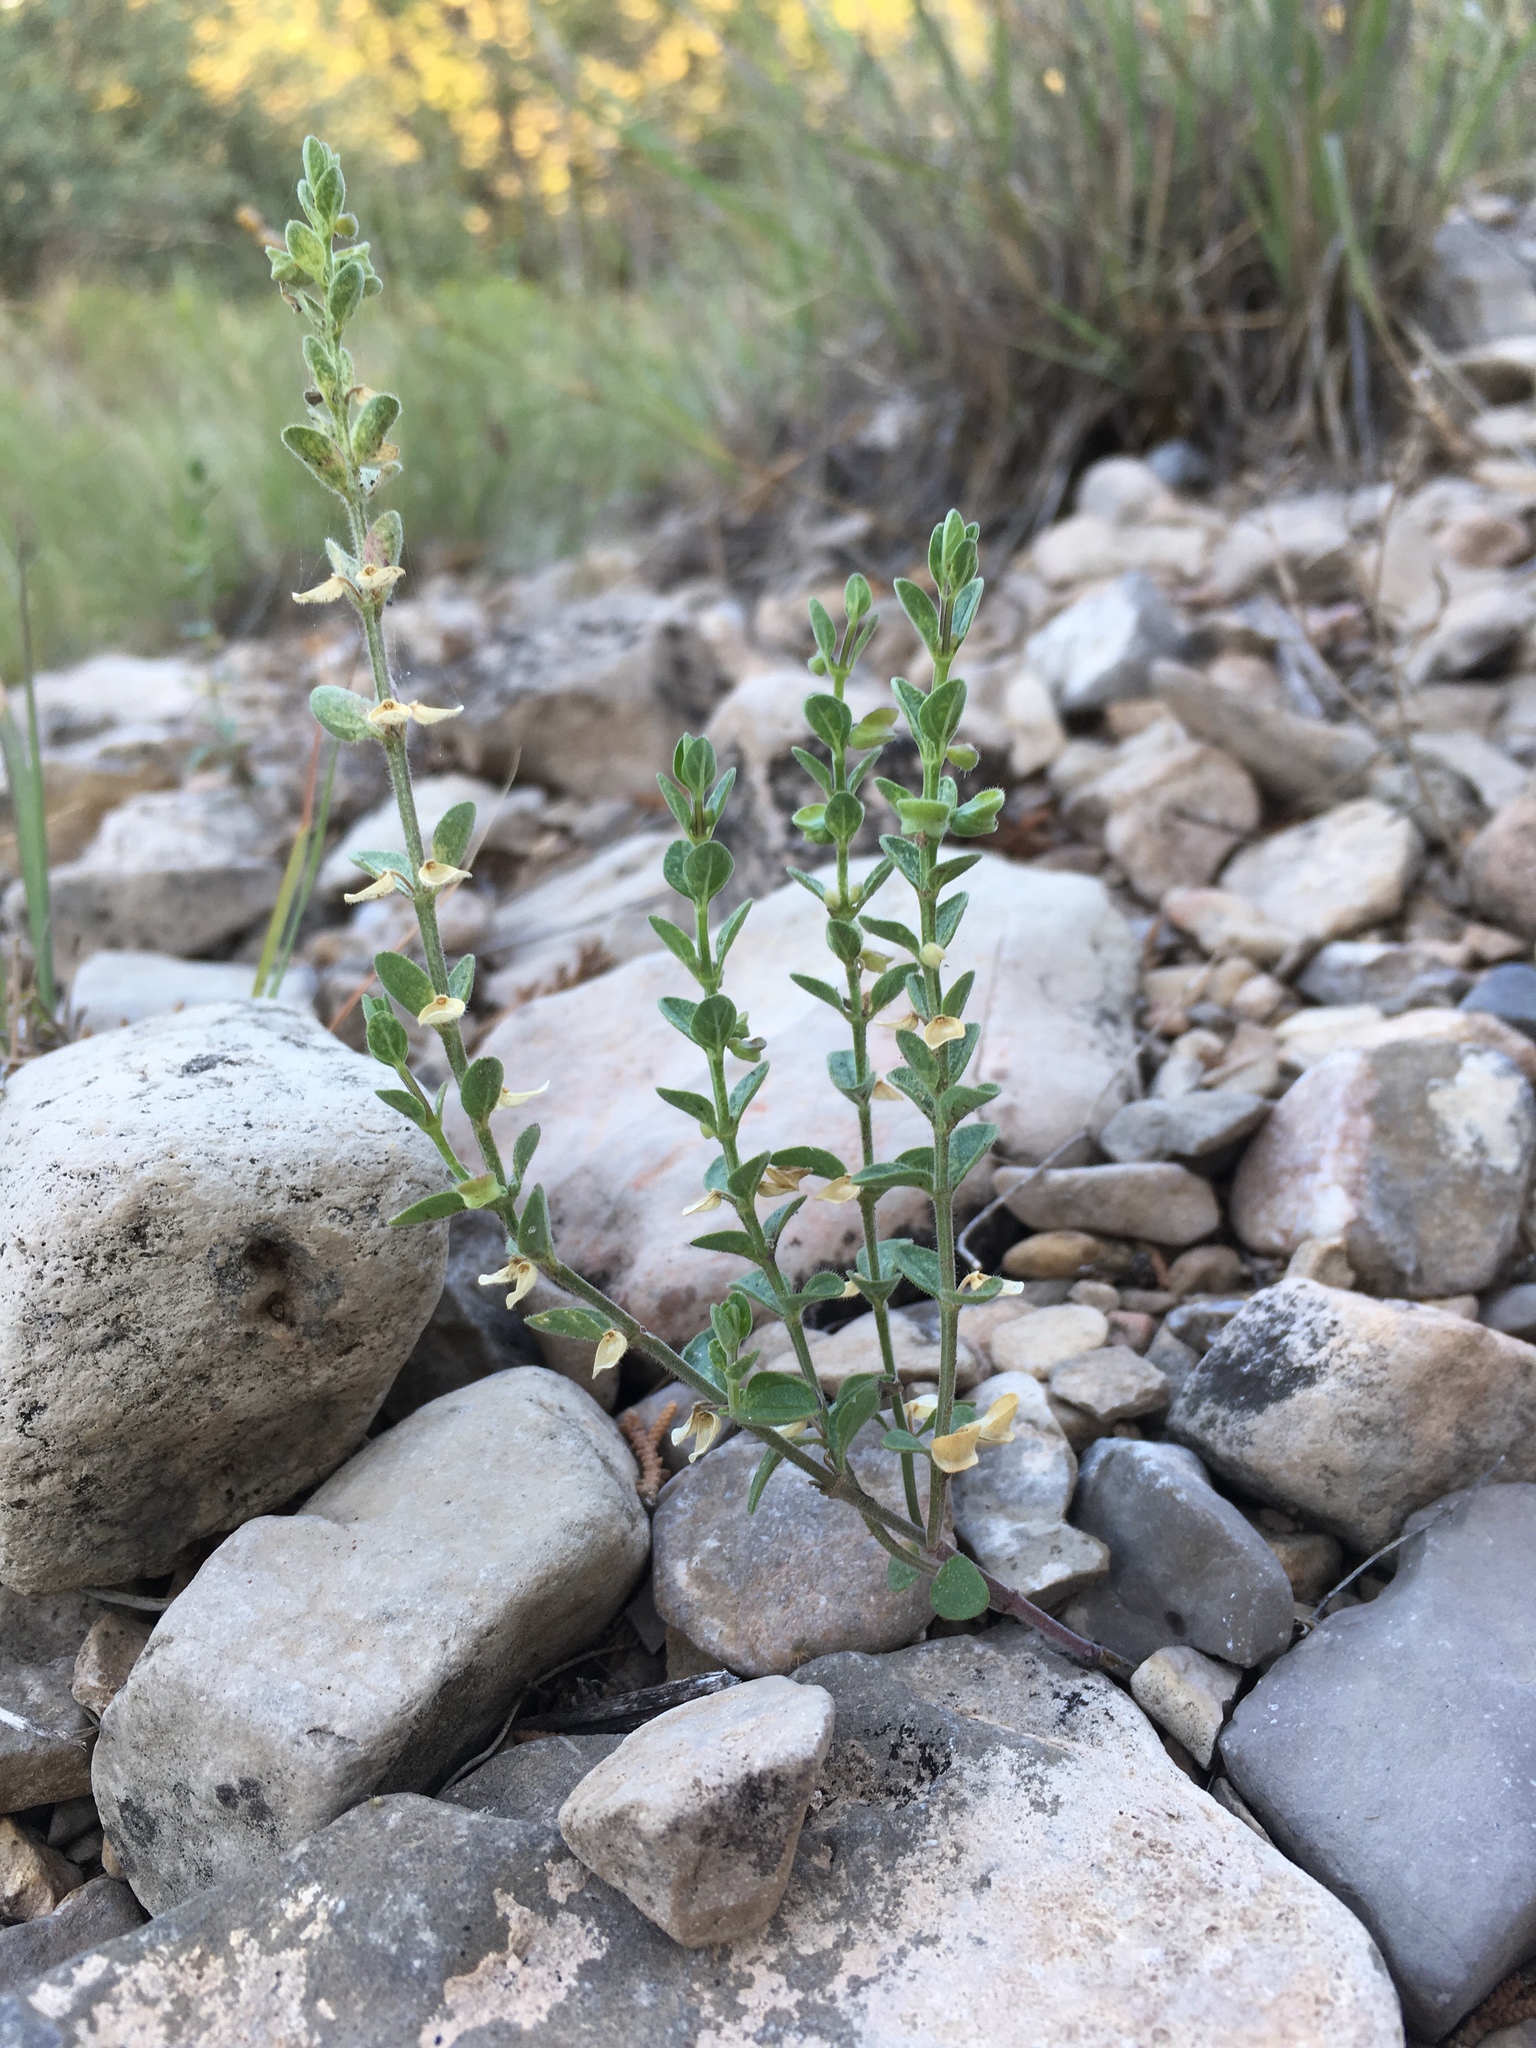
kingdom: Plantae
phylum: Tracheophyta
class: Magnoliopsida
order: Lamiales
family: Lamiaceae
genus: Scutellaria
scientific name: Scutellaria potosina
